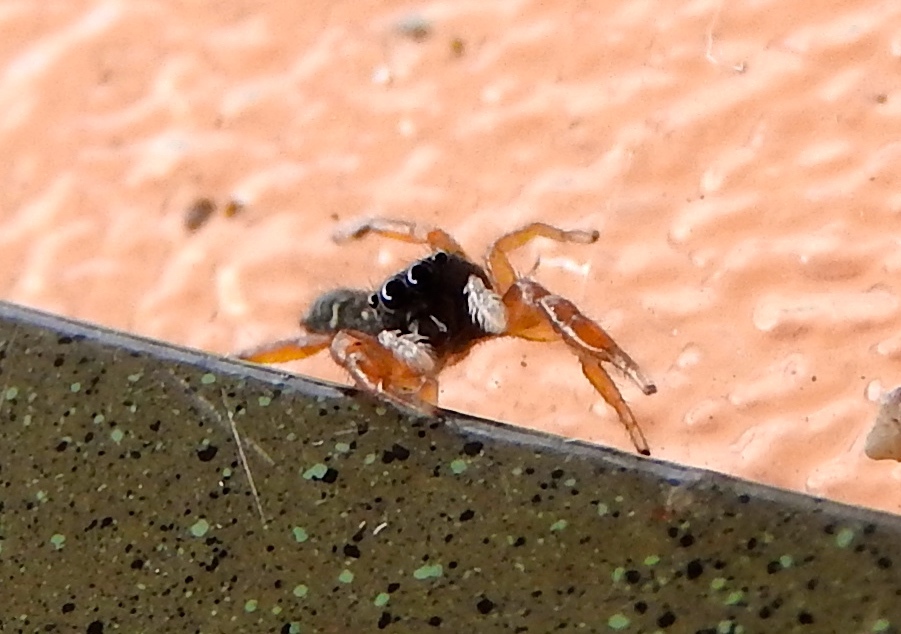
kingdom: Animalia
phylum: Arthropoda
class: Arachnida
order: Araneae
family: Salticidae
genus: Metacyrba
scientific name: Metacyrba
